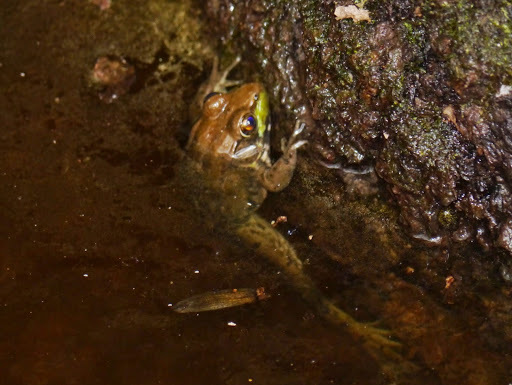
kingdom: Animalia
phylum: Chordata
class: Amphibia
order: Anura
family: Ranidae
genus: Lithobates
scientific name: Lithobates clamitans
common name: Green frog
